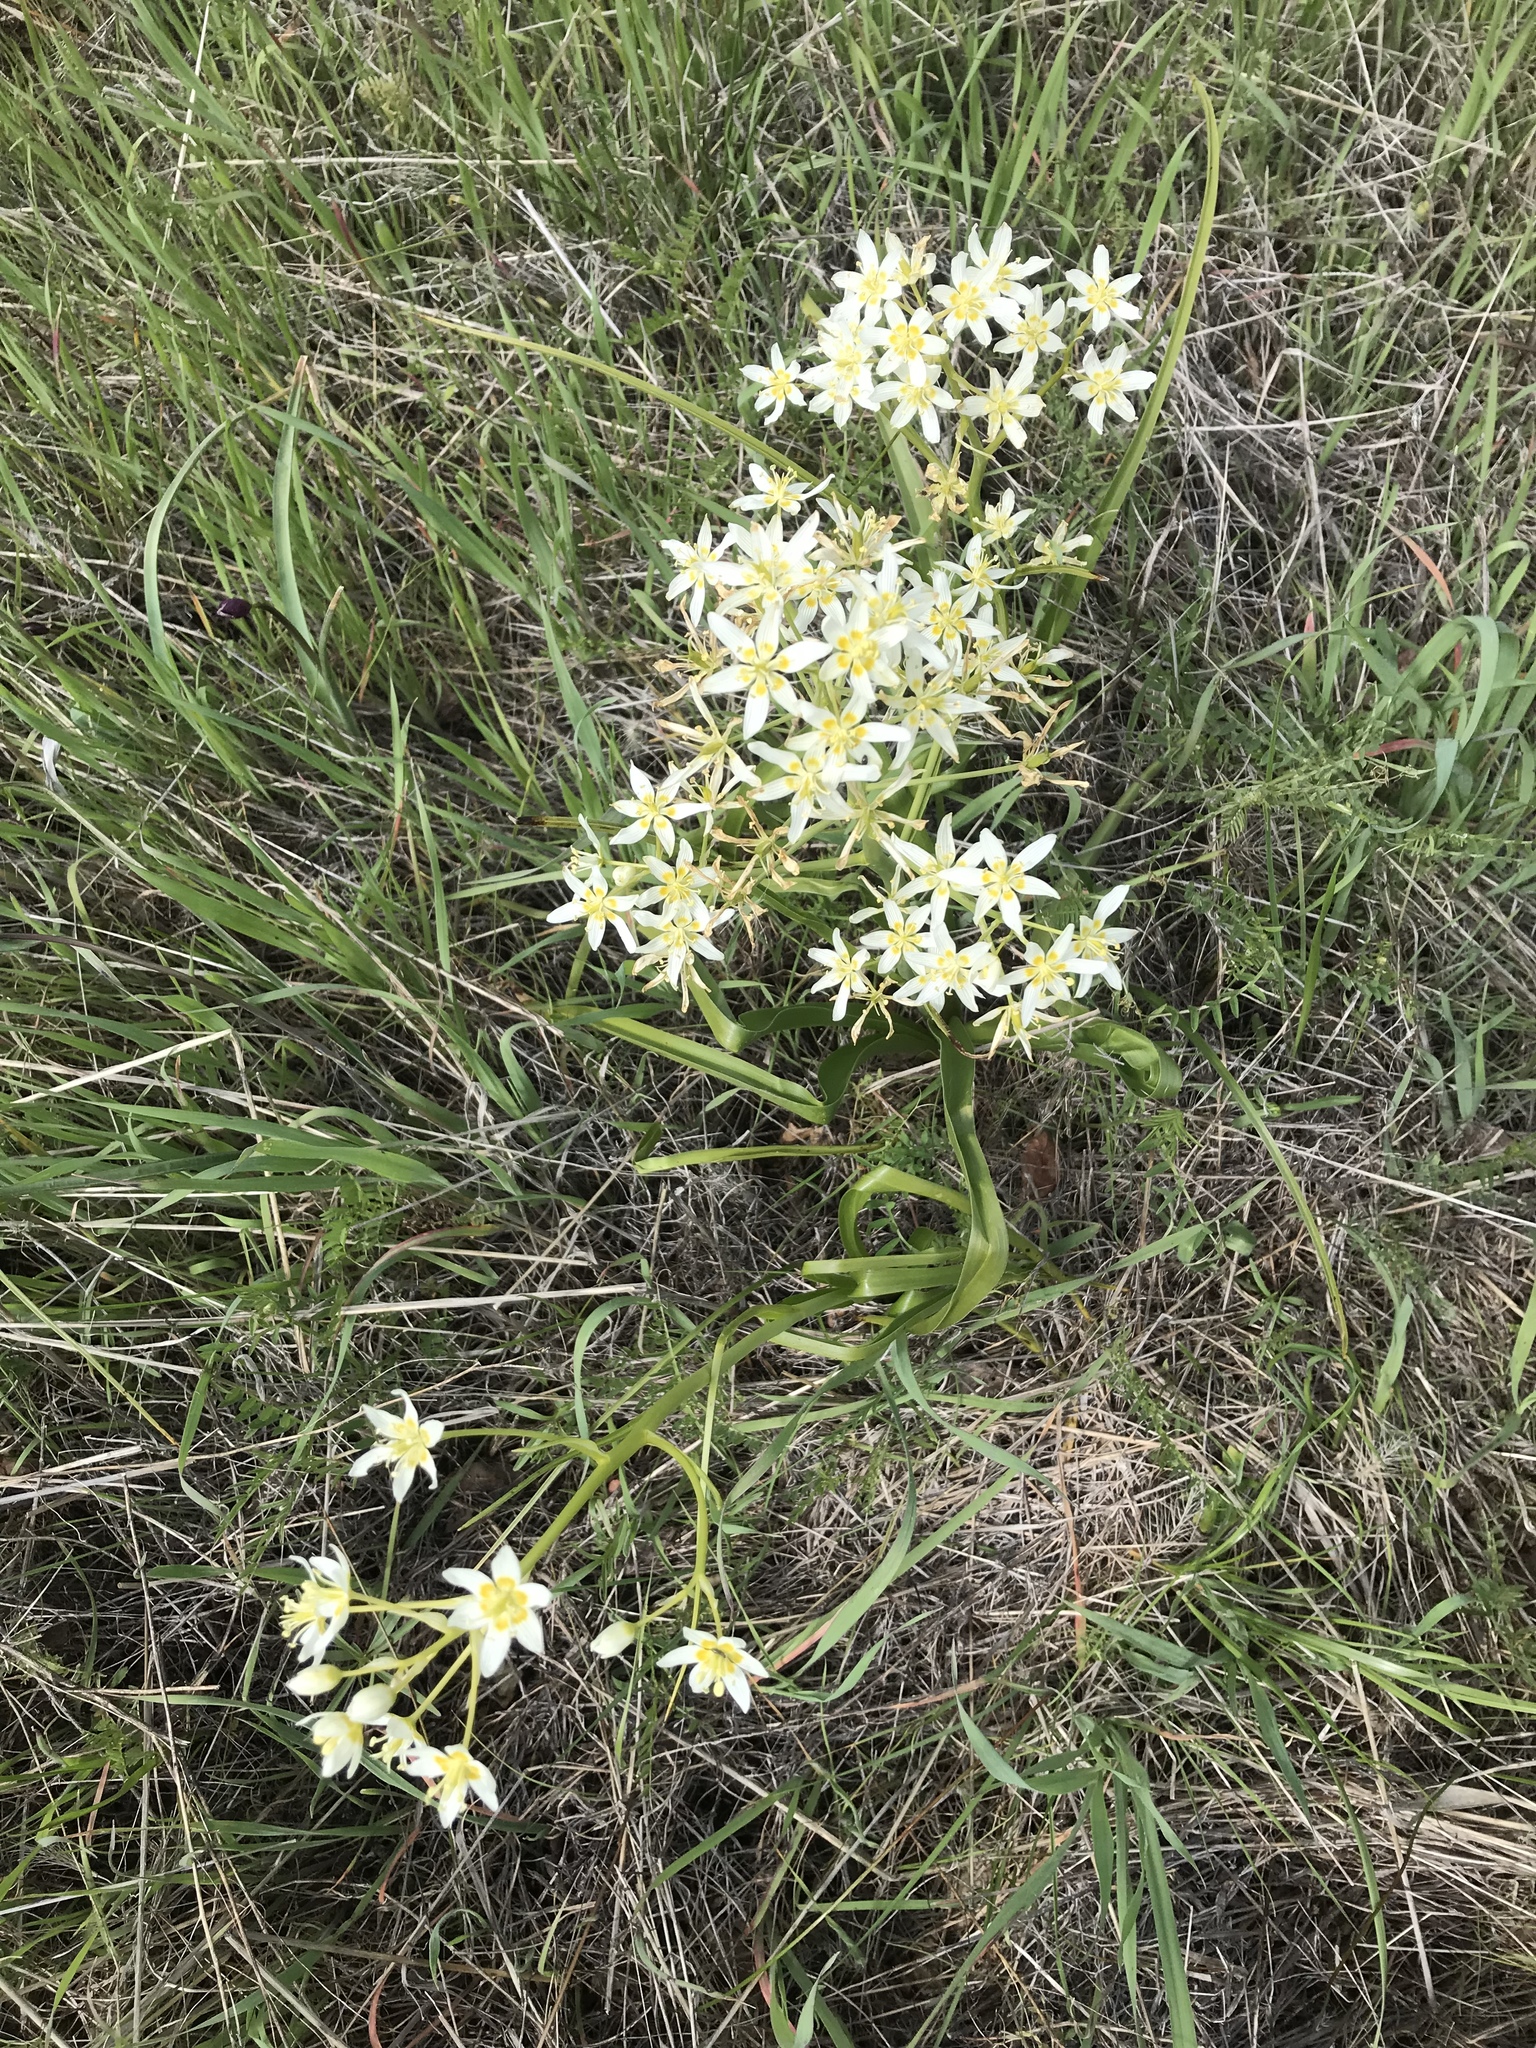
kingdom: Plantae
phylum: Tracheophyta
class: Liliopsida
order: Liliales
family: Melanthiaceae
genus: Toxicoscordion
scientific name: Toxicoscordion fremontii
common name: Fremont's death camas
